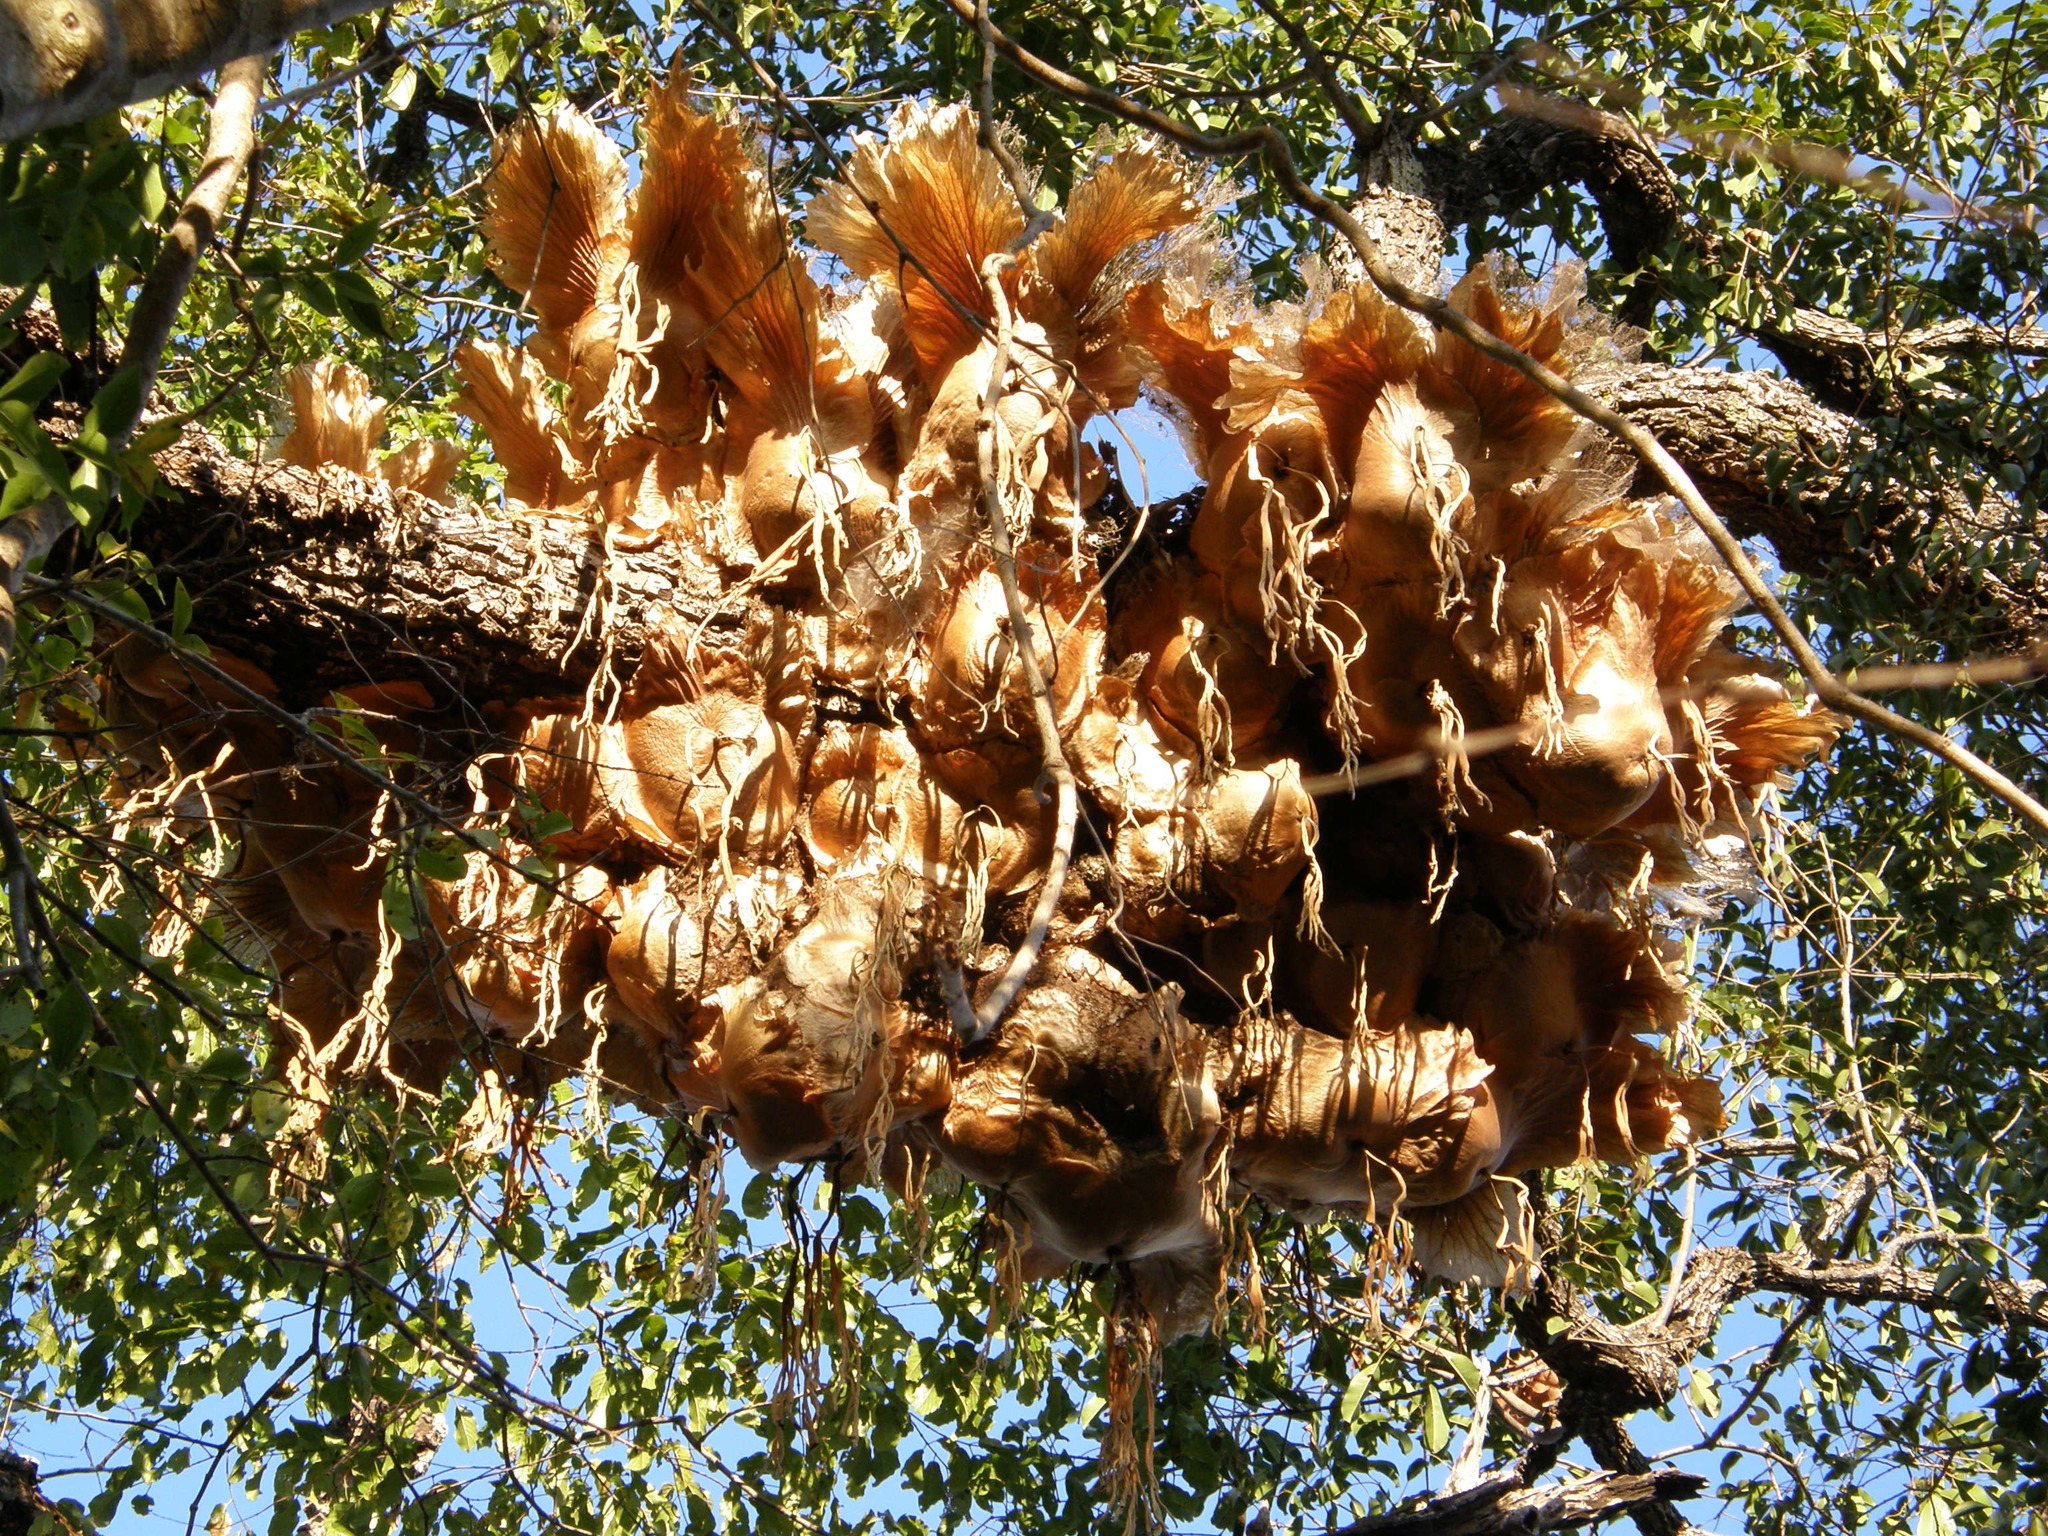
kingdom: Plantae
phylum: Tracheophyta
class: Polypodiopsida
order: Polypodiales
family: Polypodiaceae
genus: Platycerium
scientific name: Platycerium quadridichotomum
